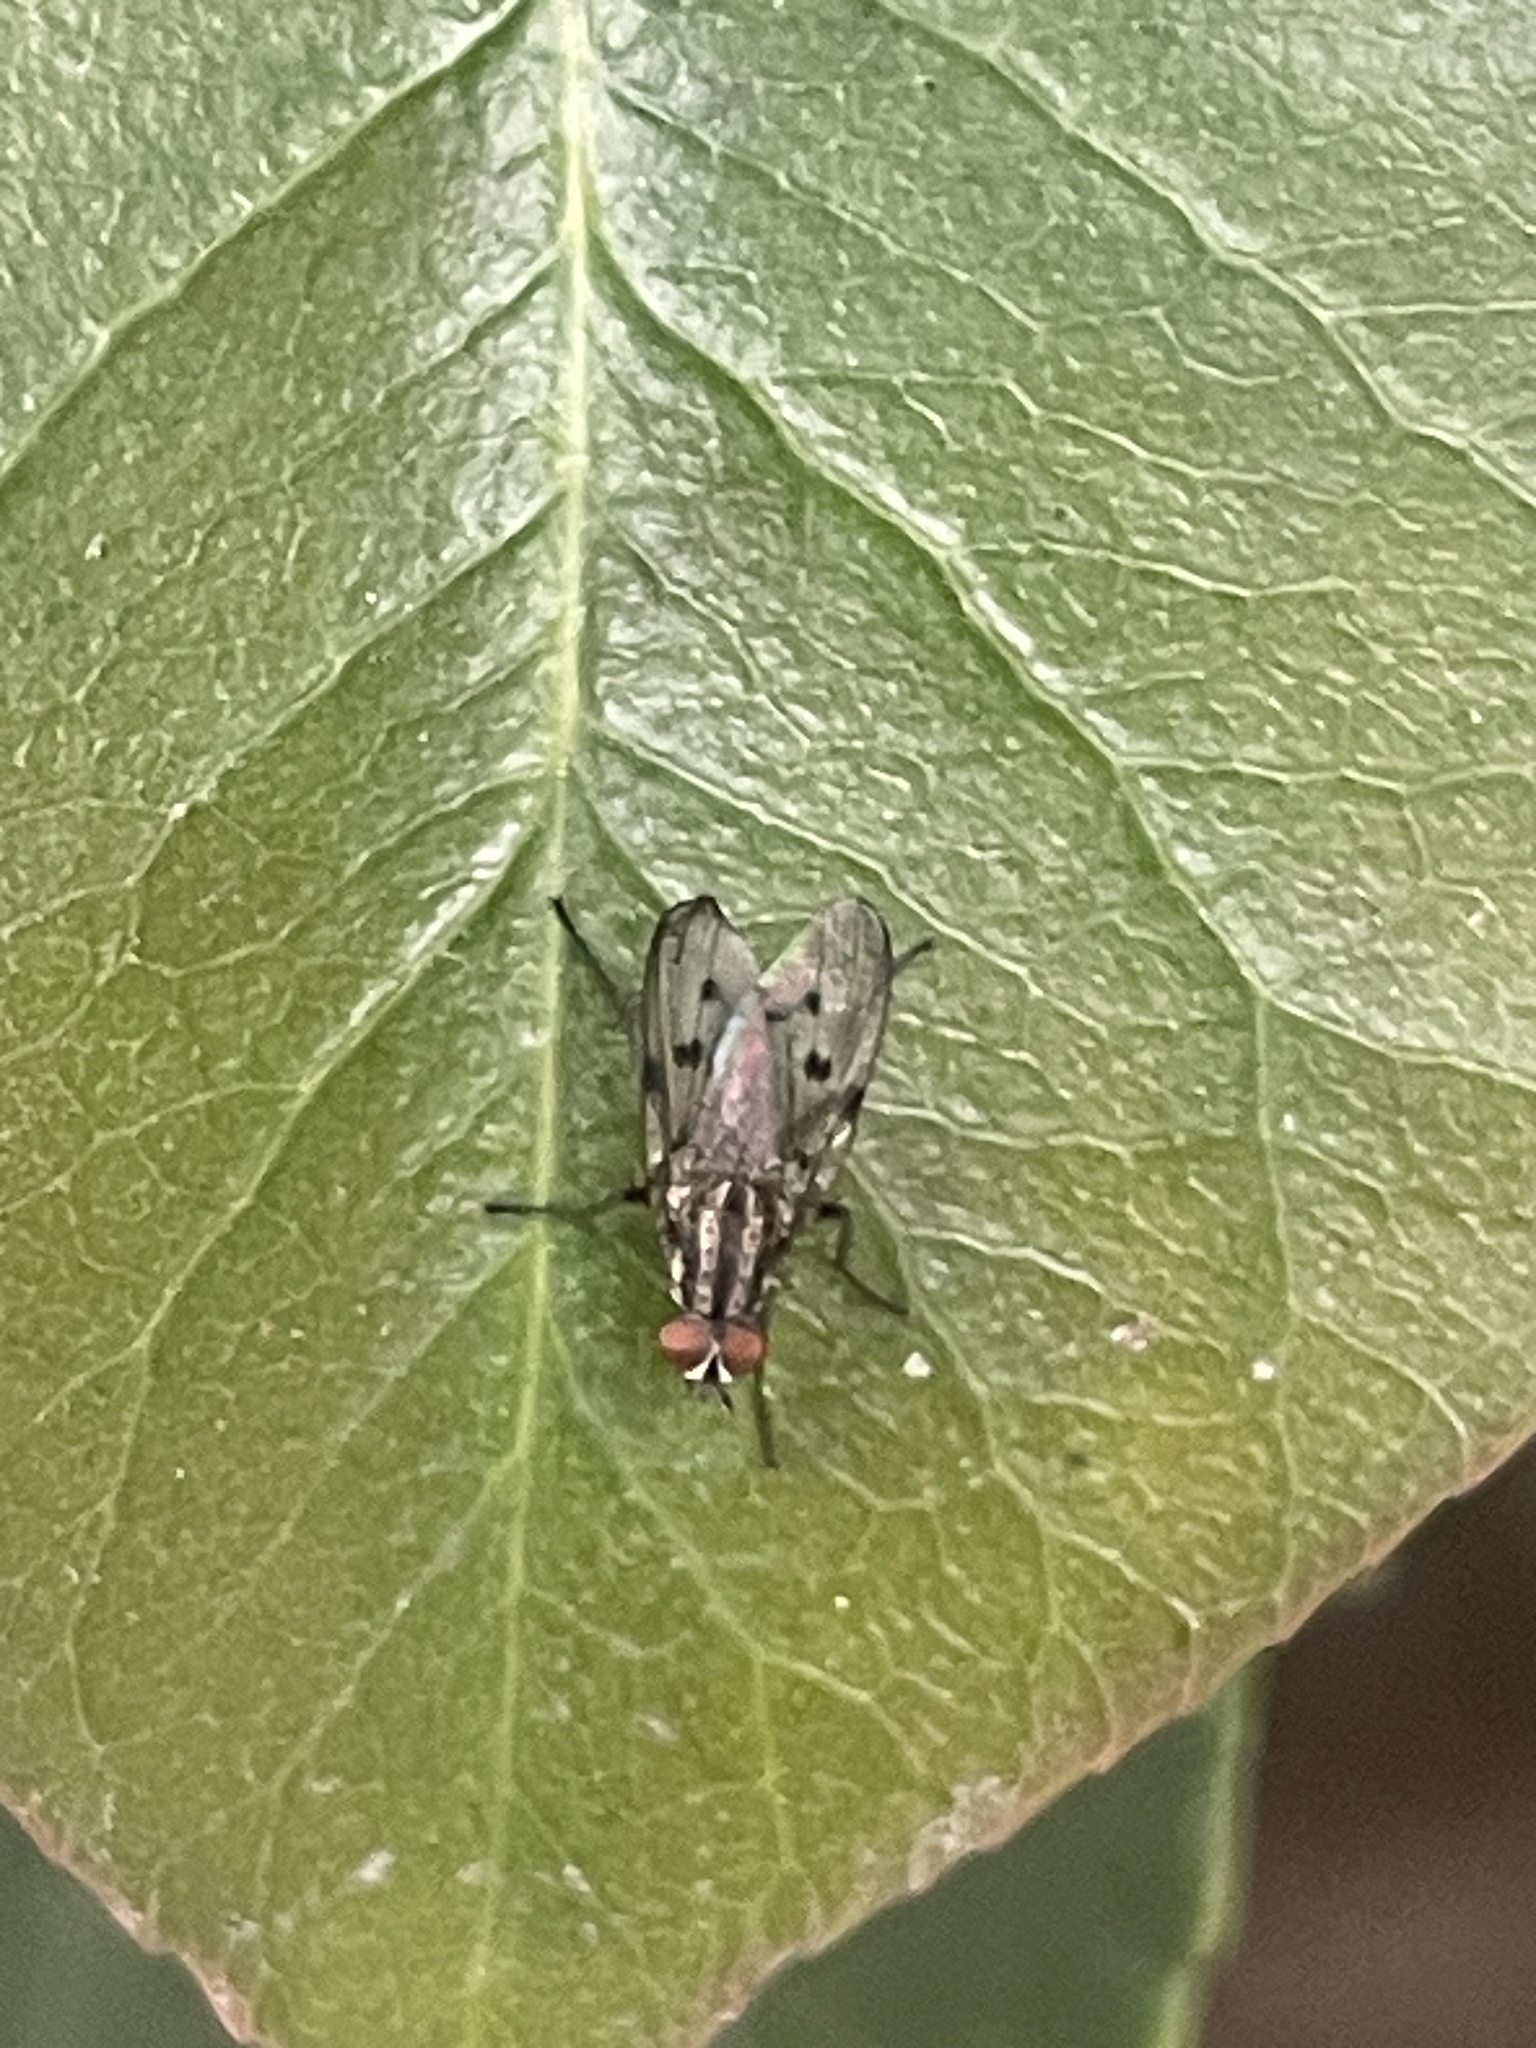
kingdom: Animalia
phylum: Arthropoda
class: Insecta
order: Diptera
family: Anthomyiidae
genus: Anthomyia
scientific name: Anthomyia punctipennis
